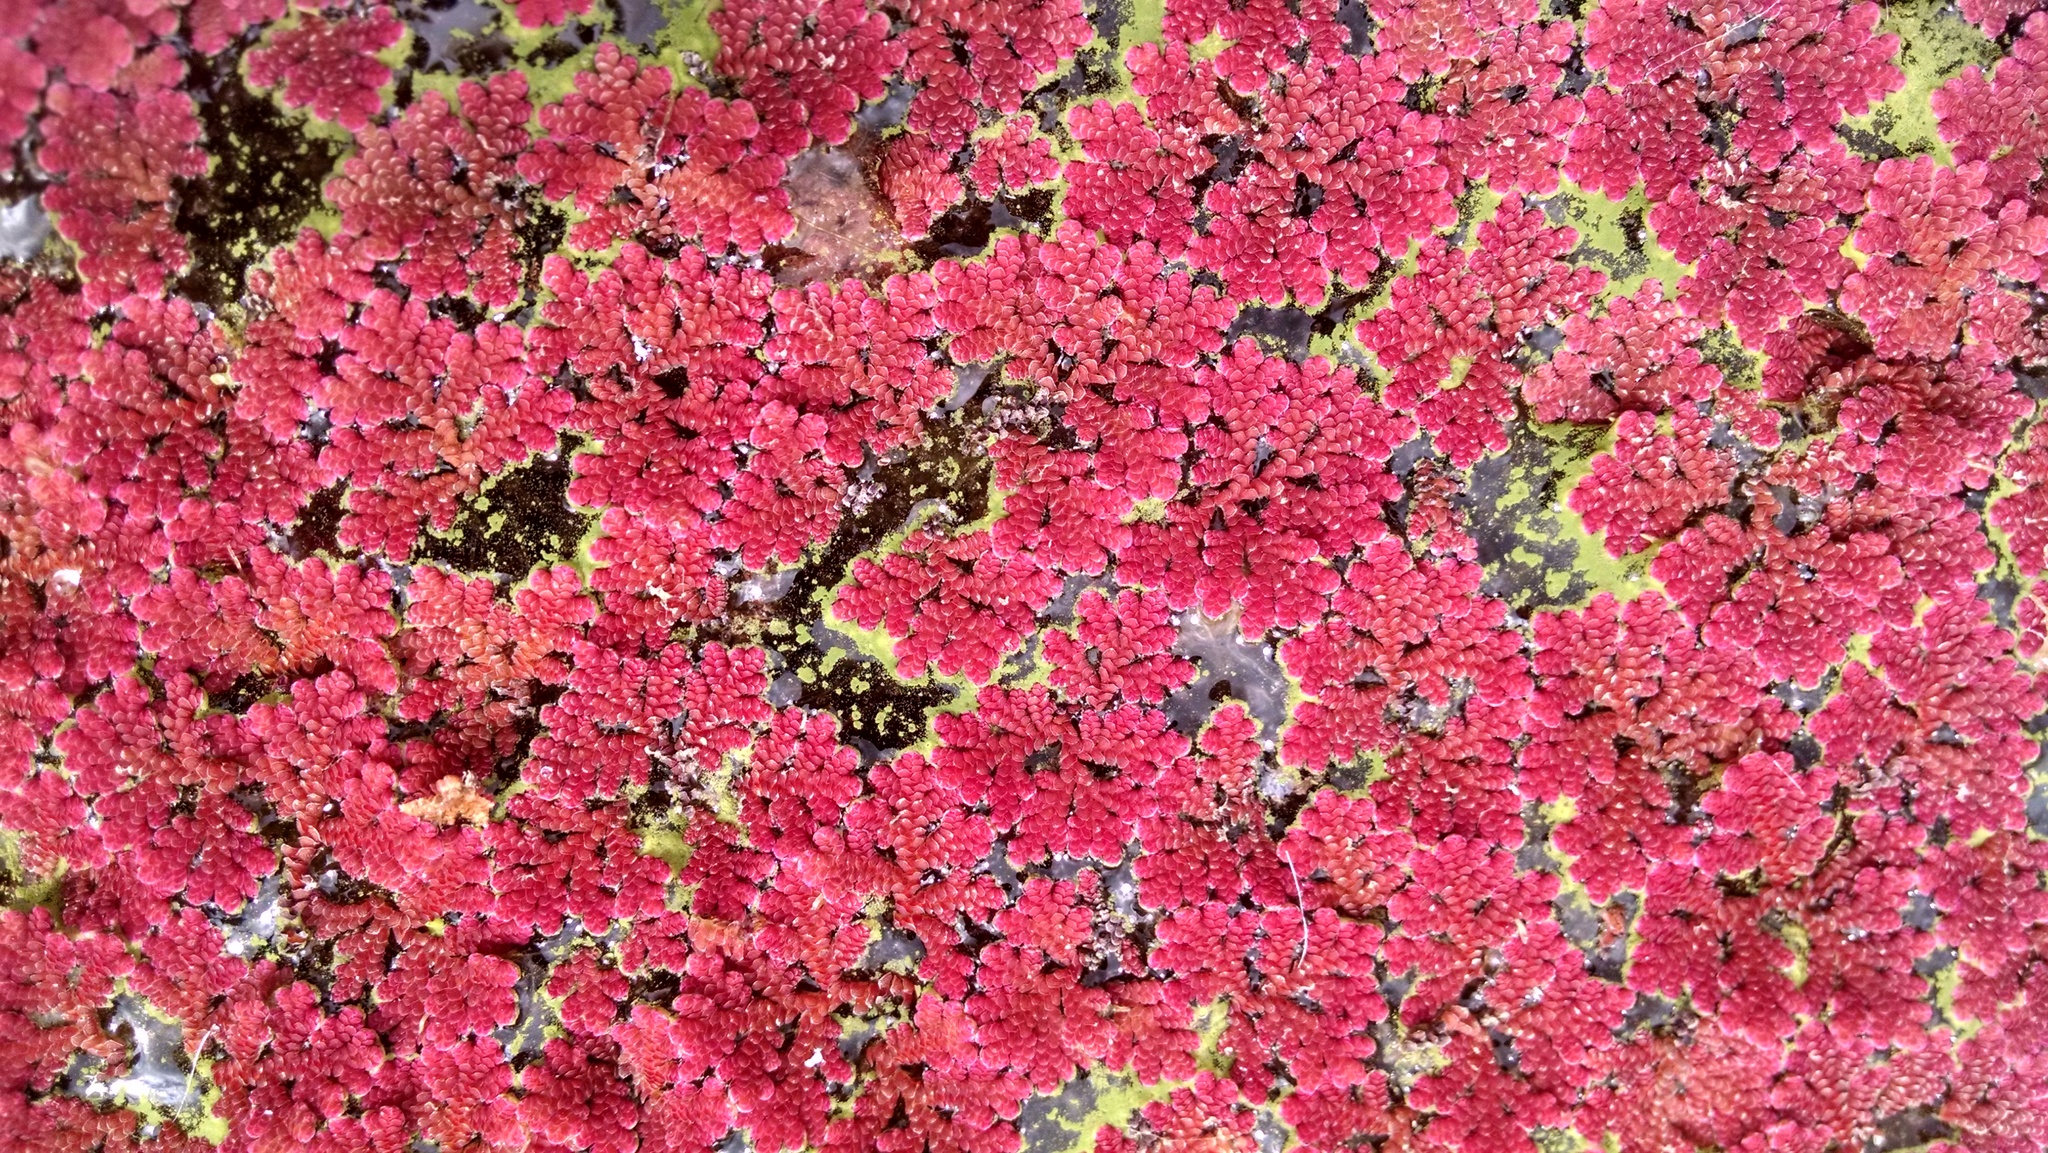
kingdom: Plantae
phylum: Tracheophyta
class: Polypodiopsida
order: Salviniales
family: Salviniaceae
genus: Azolla
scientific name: Azolla filiculoides
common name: Water fern
